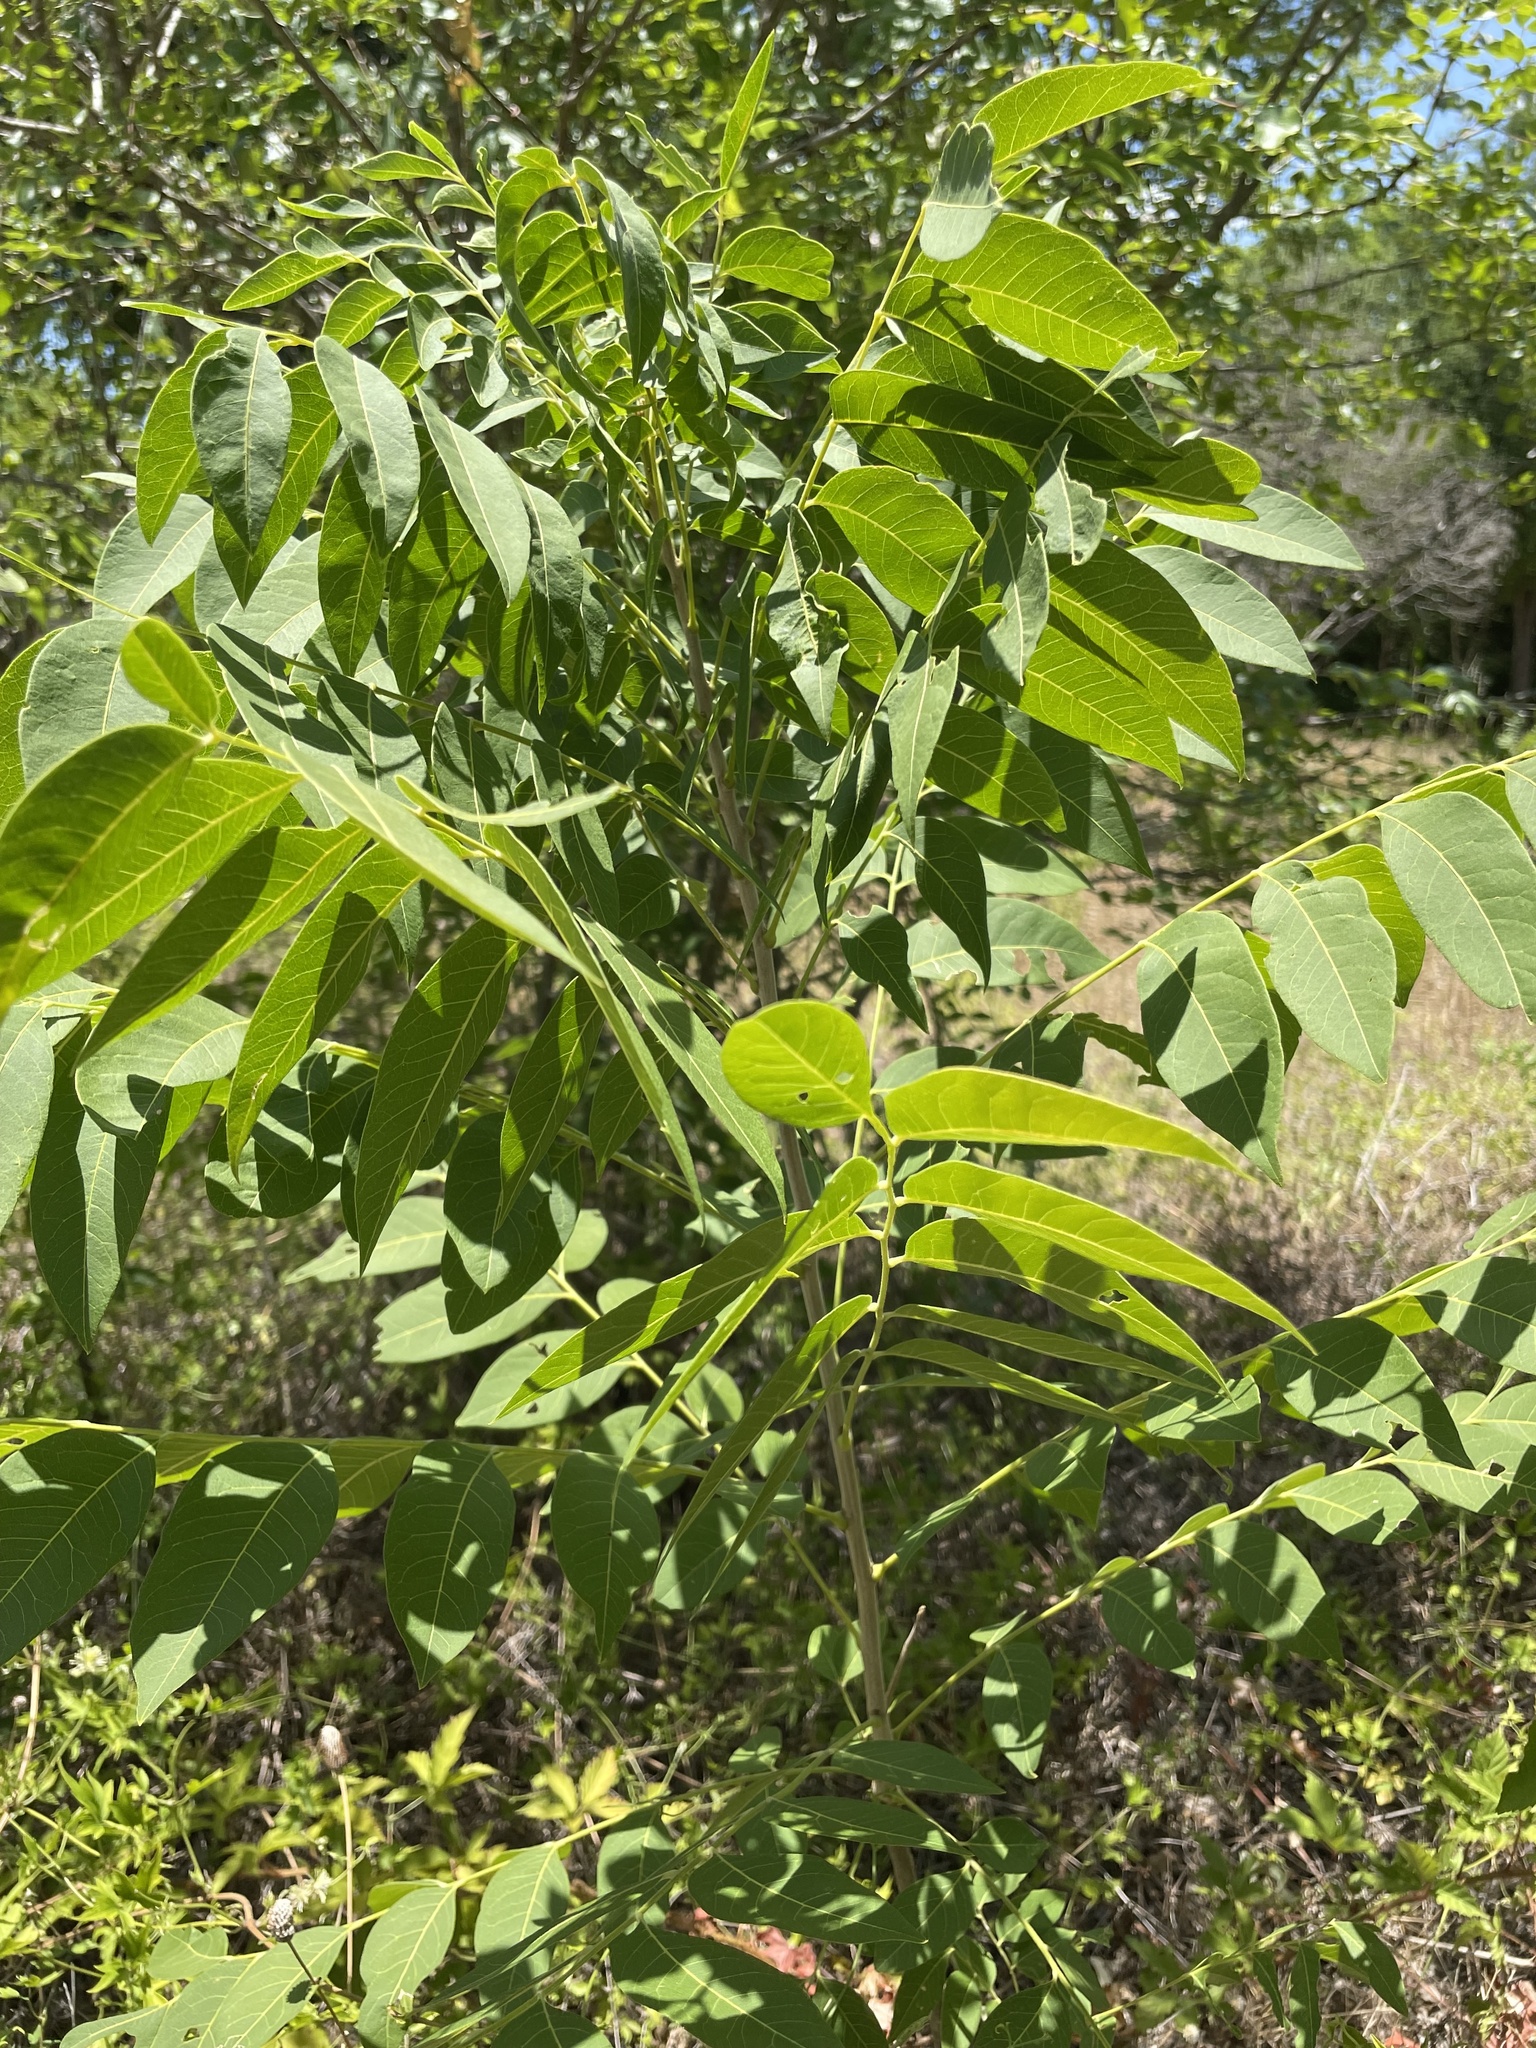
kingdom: Plantae
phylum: Tracheophyta
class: Magnoliopsida
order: Sapindales
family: Sapindaceae
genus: Sapindus
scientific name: Sapindus drummondii
